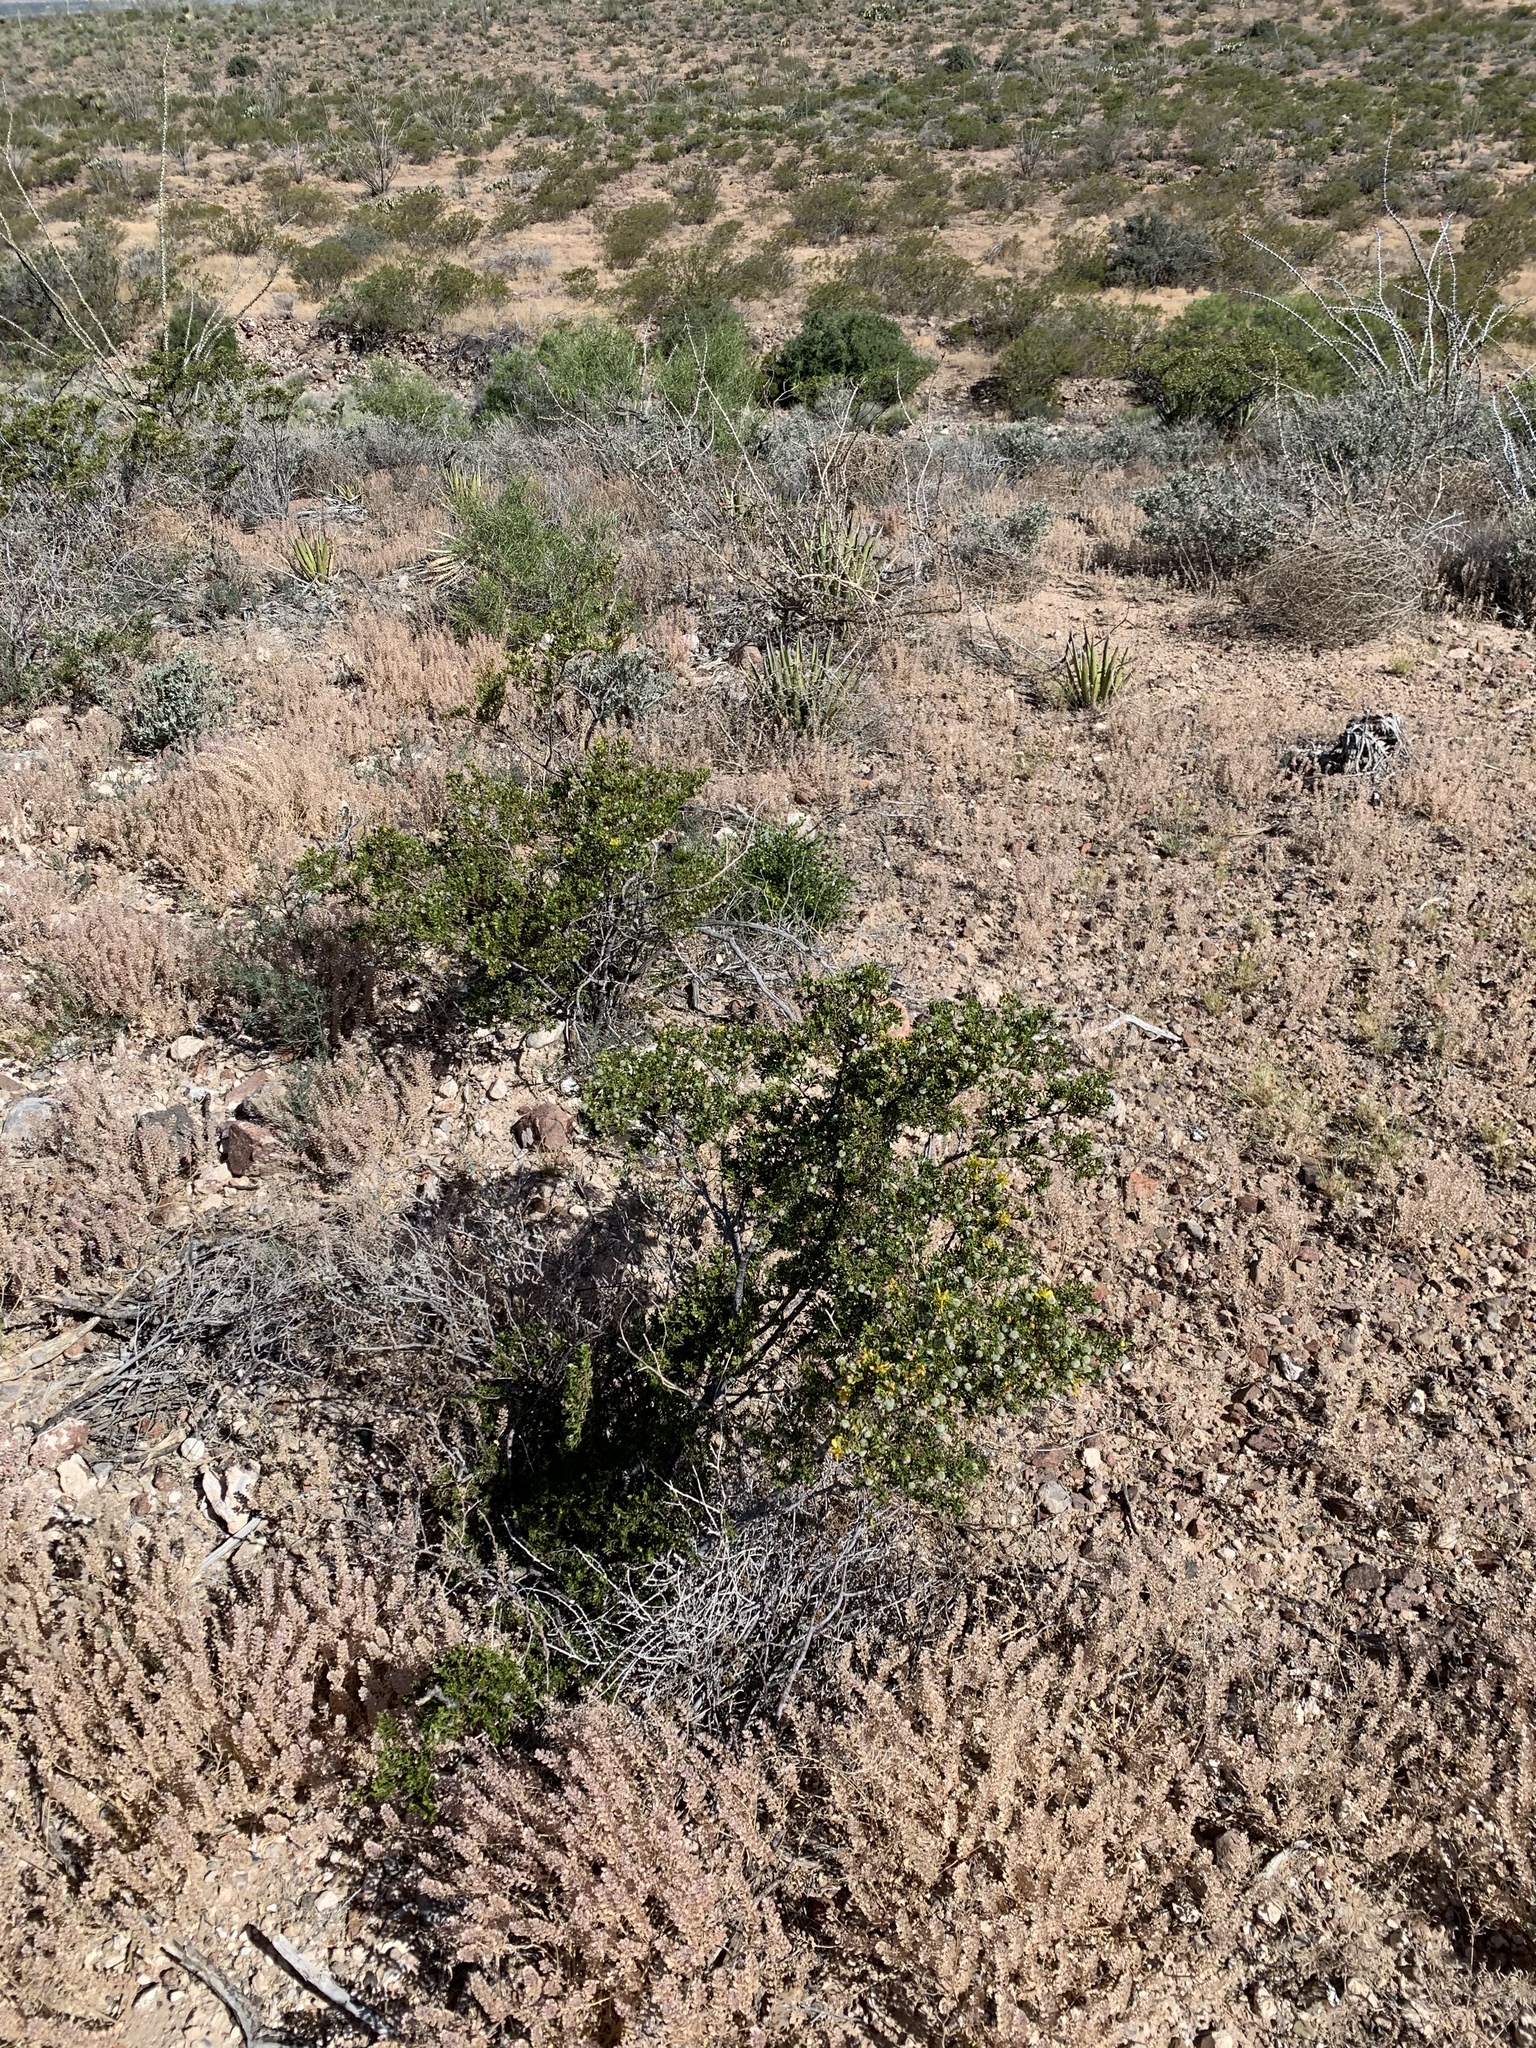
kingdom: Plantae
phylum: Tracheophyta
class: Magnoliopsida
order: Zygophyllales
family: Zygophyllaceae
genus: Larrea
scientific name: Larrea tridentata
